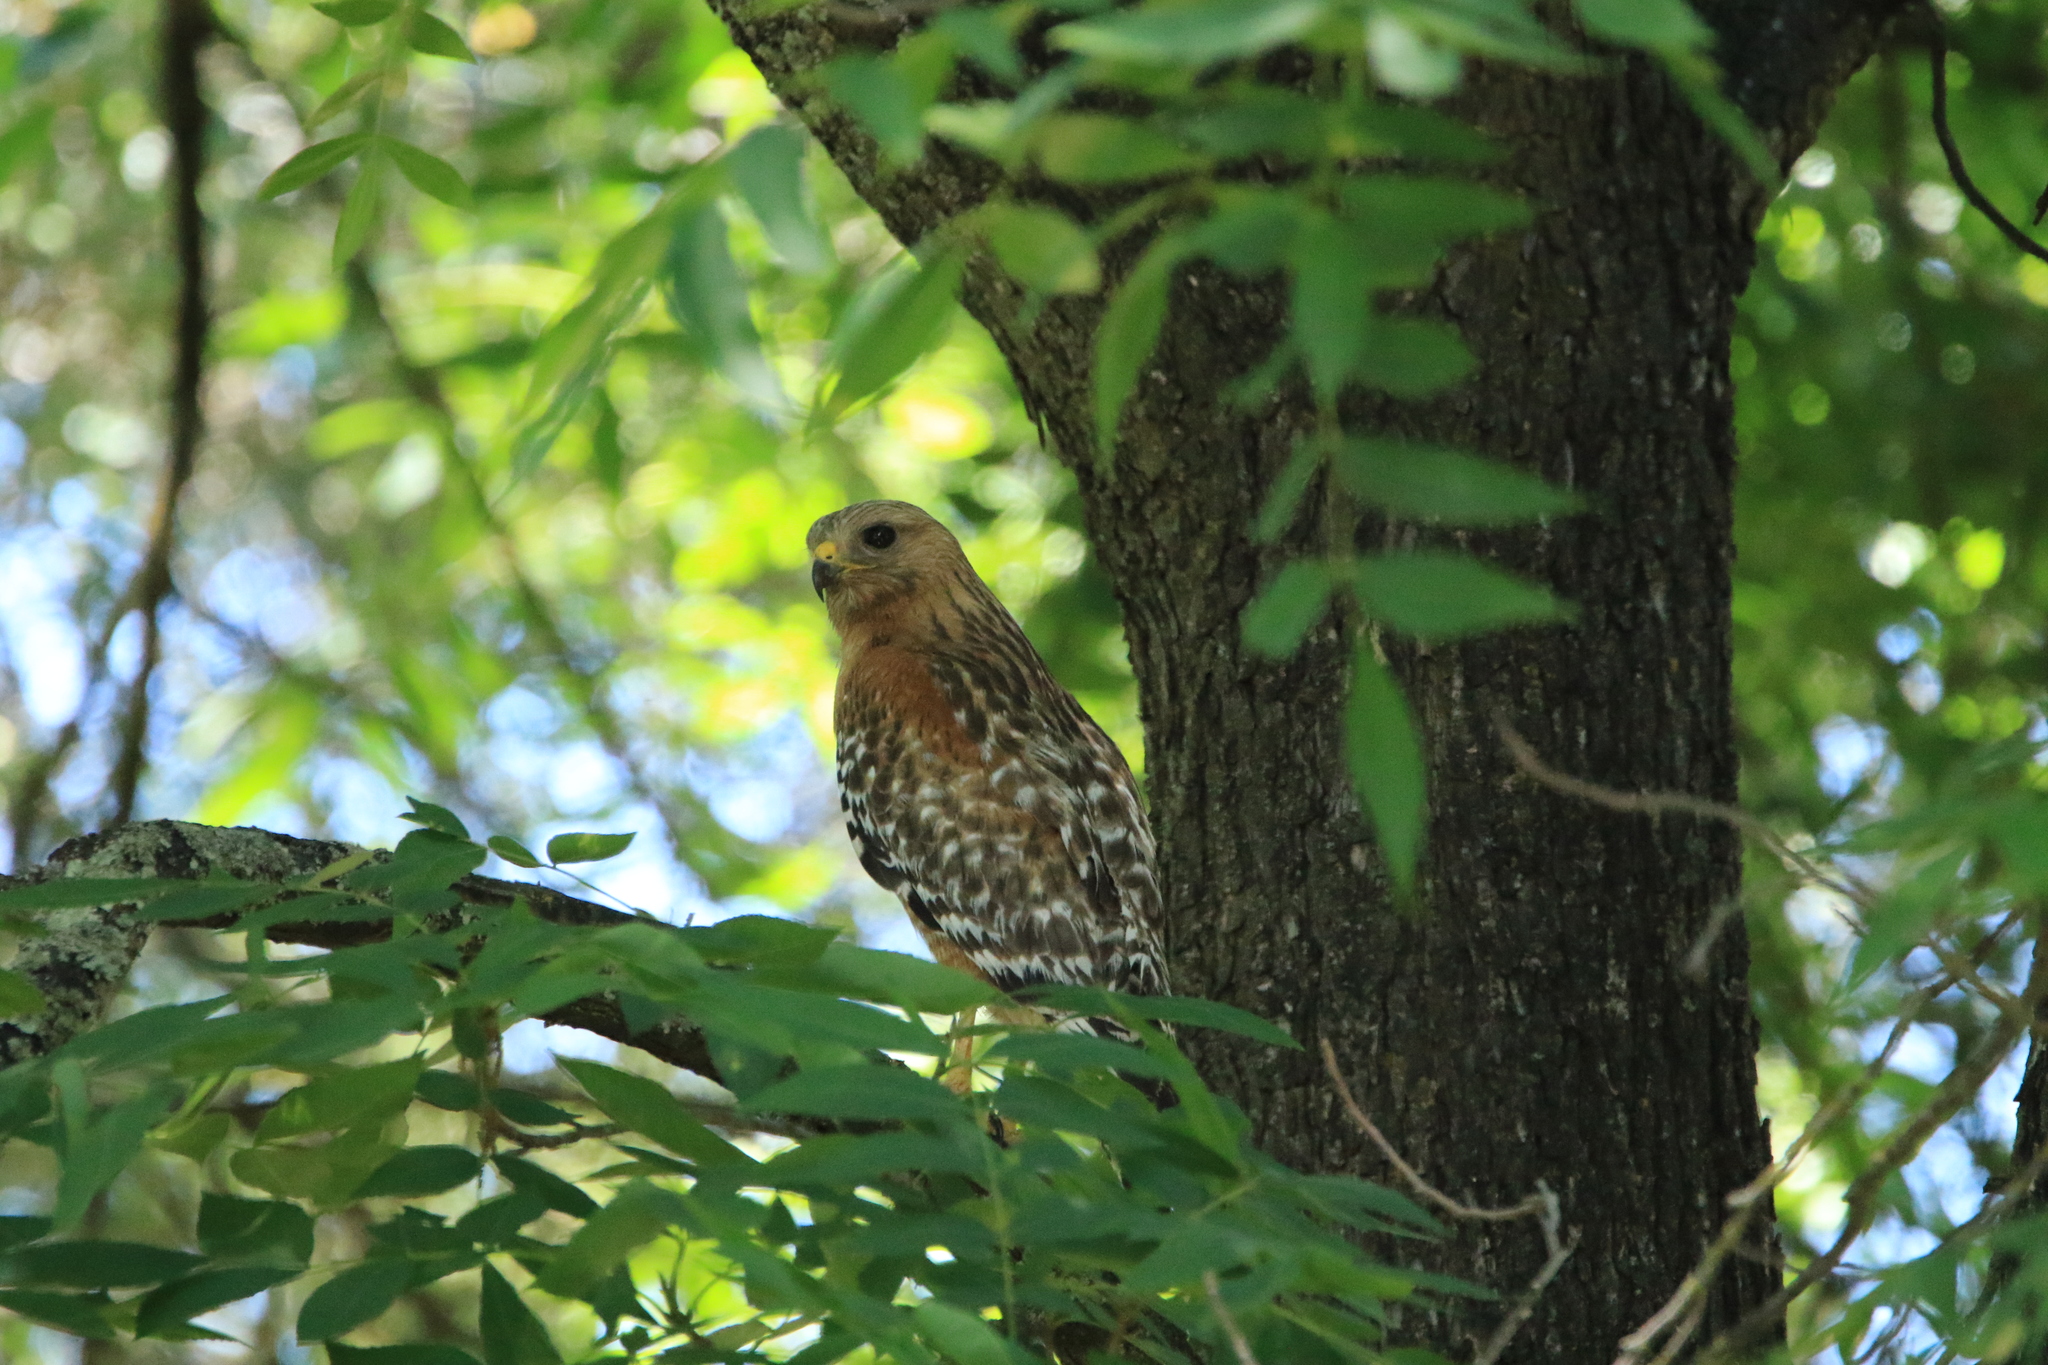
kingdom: Animalia
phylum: Chordata
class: Aves
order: Accipitriformes
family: Accipitridae
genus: Buteo
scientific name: Buteo lineatus
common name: Red-shouldered hawk
